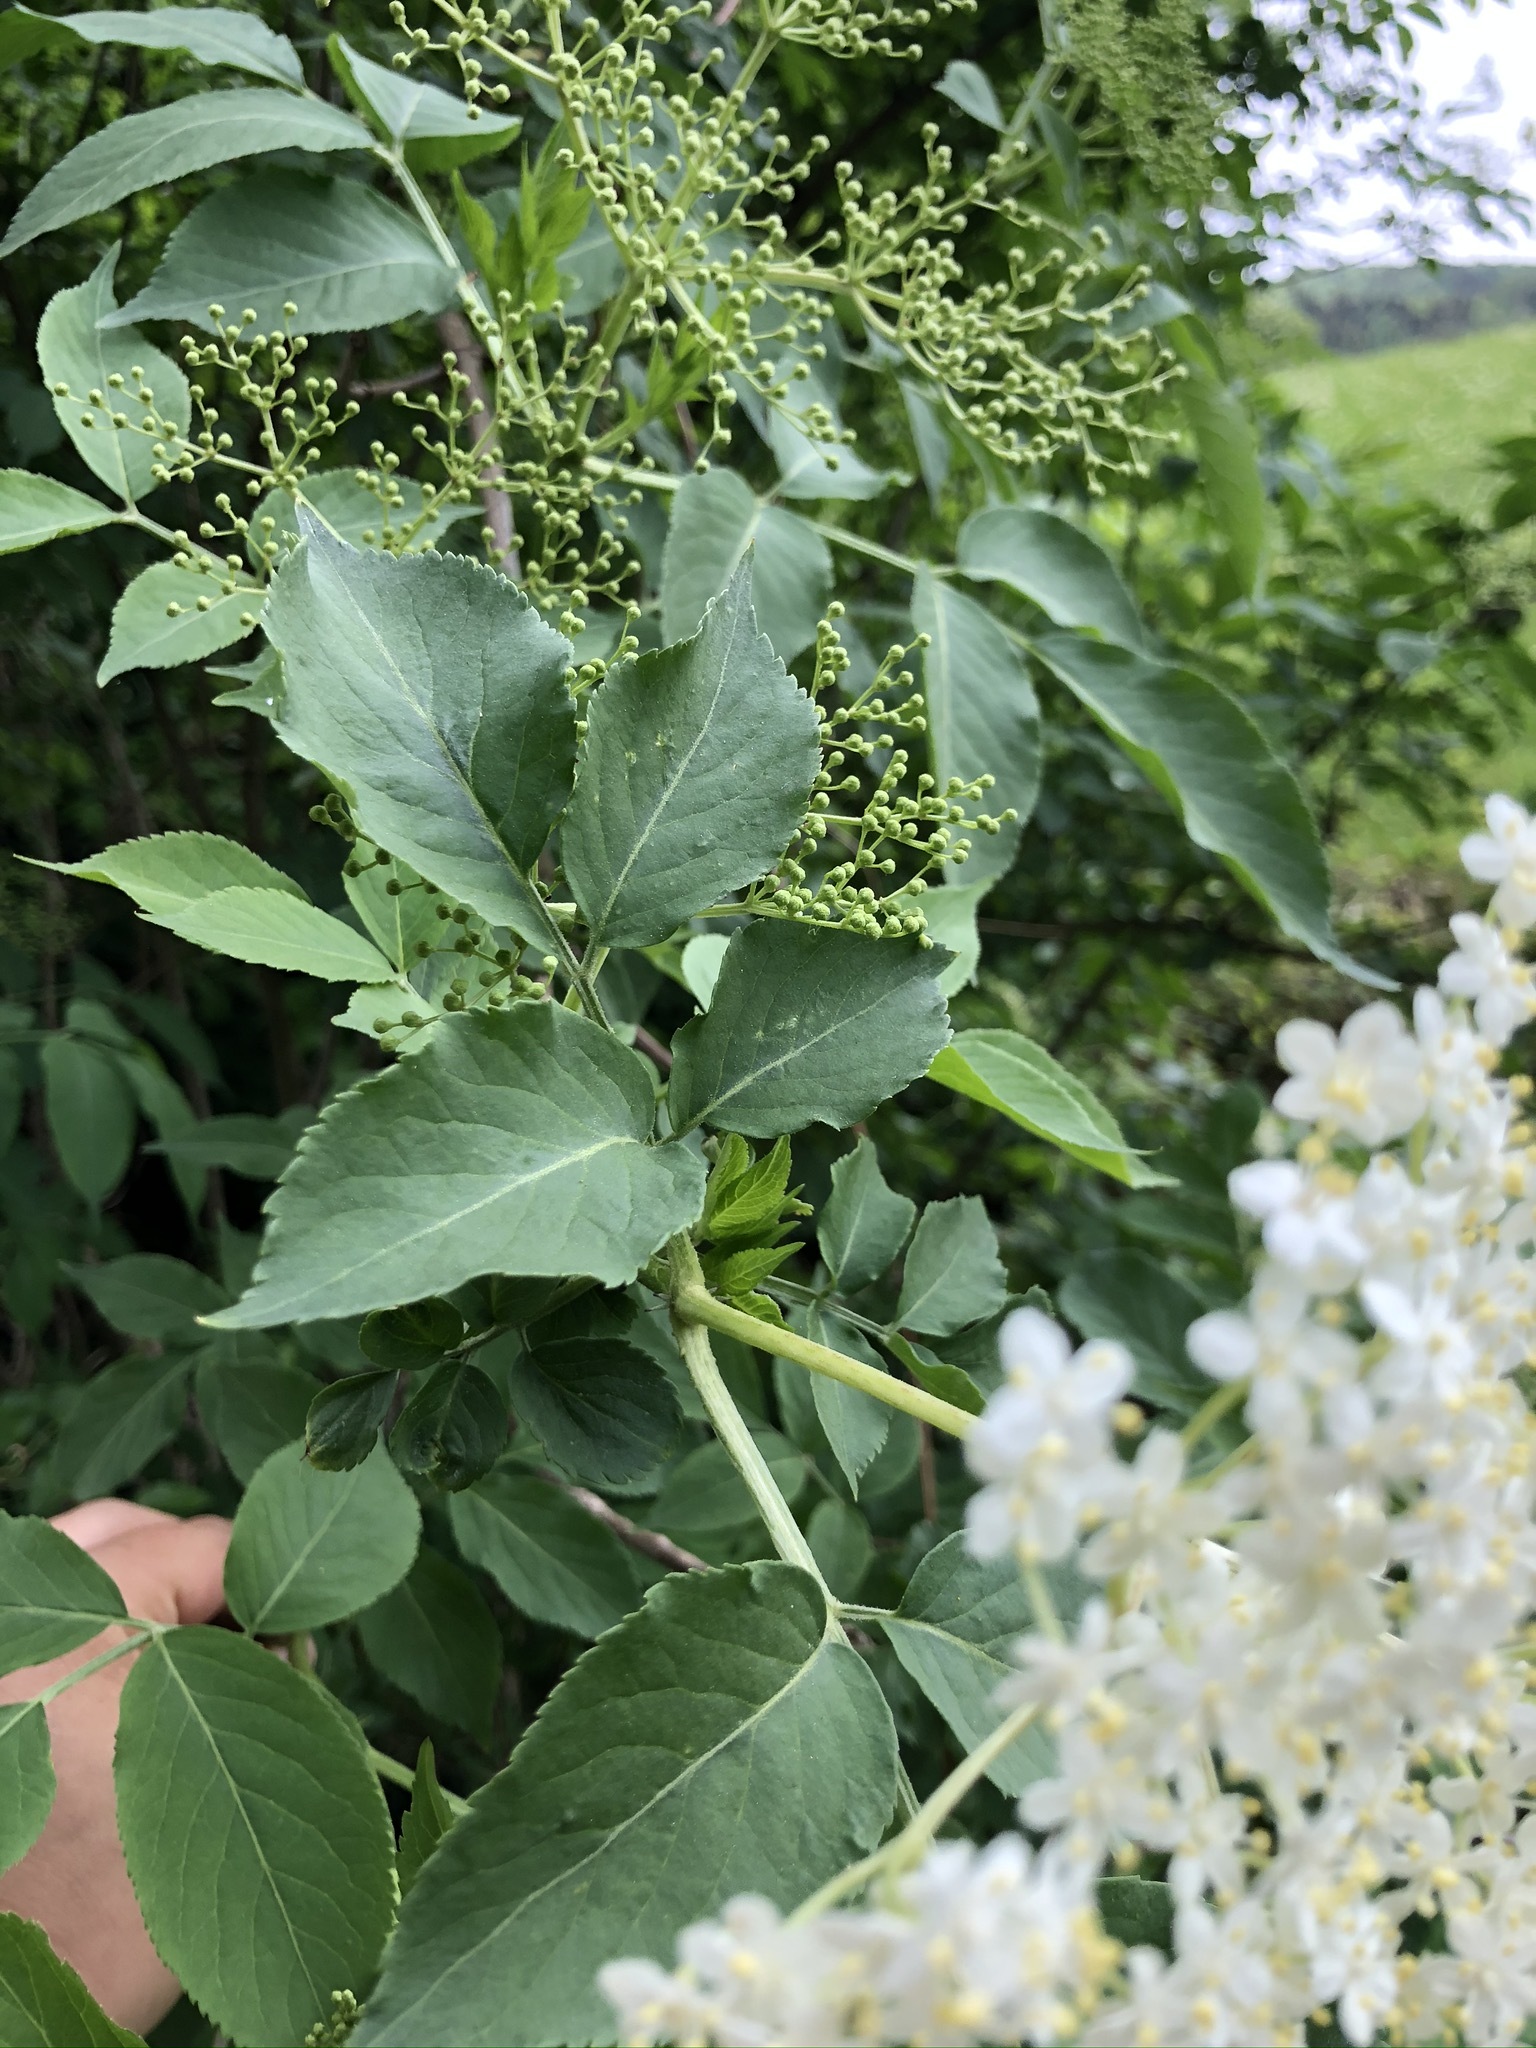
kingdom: Plantae
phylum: Tracheophyta
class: Magnoliopsida
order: Dipsacales
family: Viburnaceae
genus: Sambucus
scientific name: Sambucus nigra
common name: Elder
